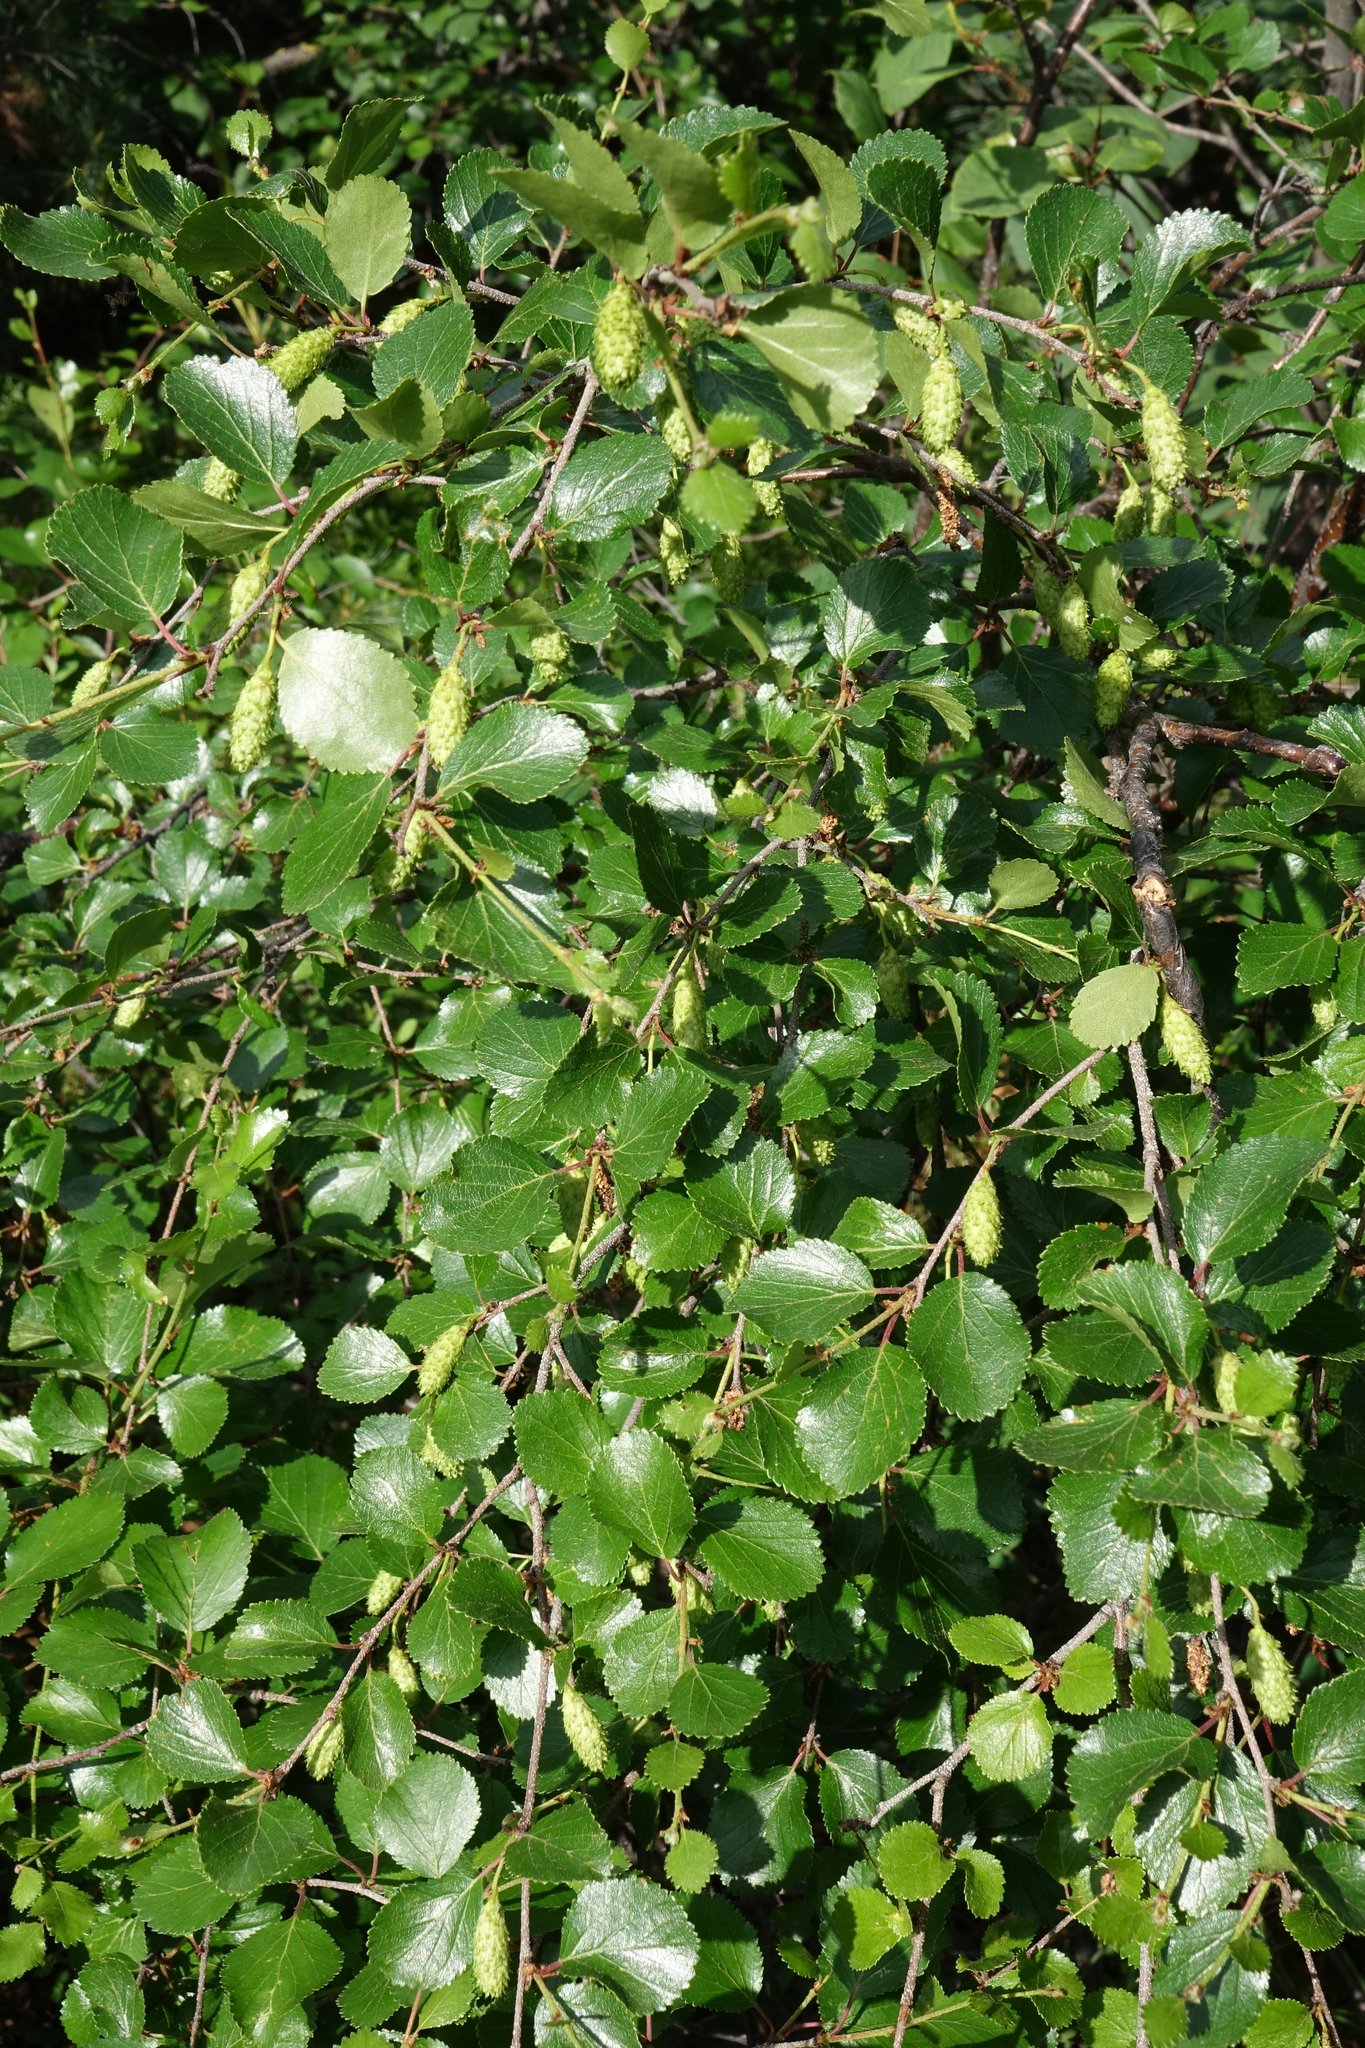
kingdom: Plantae
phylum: Tracheophyta
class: Magnoliopsida
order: Fagales
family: Betulaceae
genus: Betula
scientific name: Betula fruticosa
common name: Japanese bog birch
